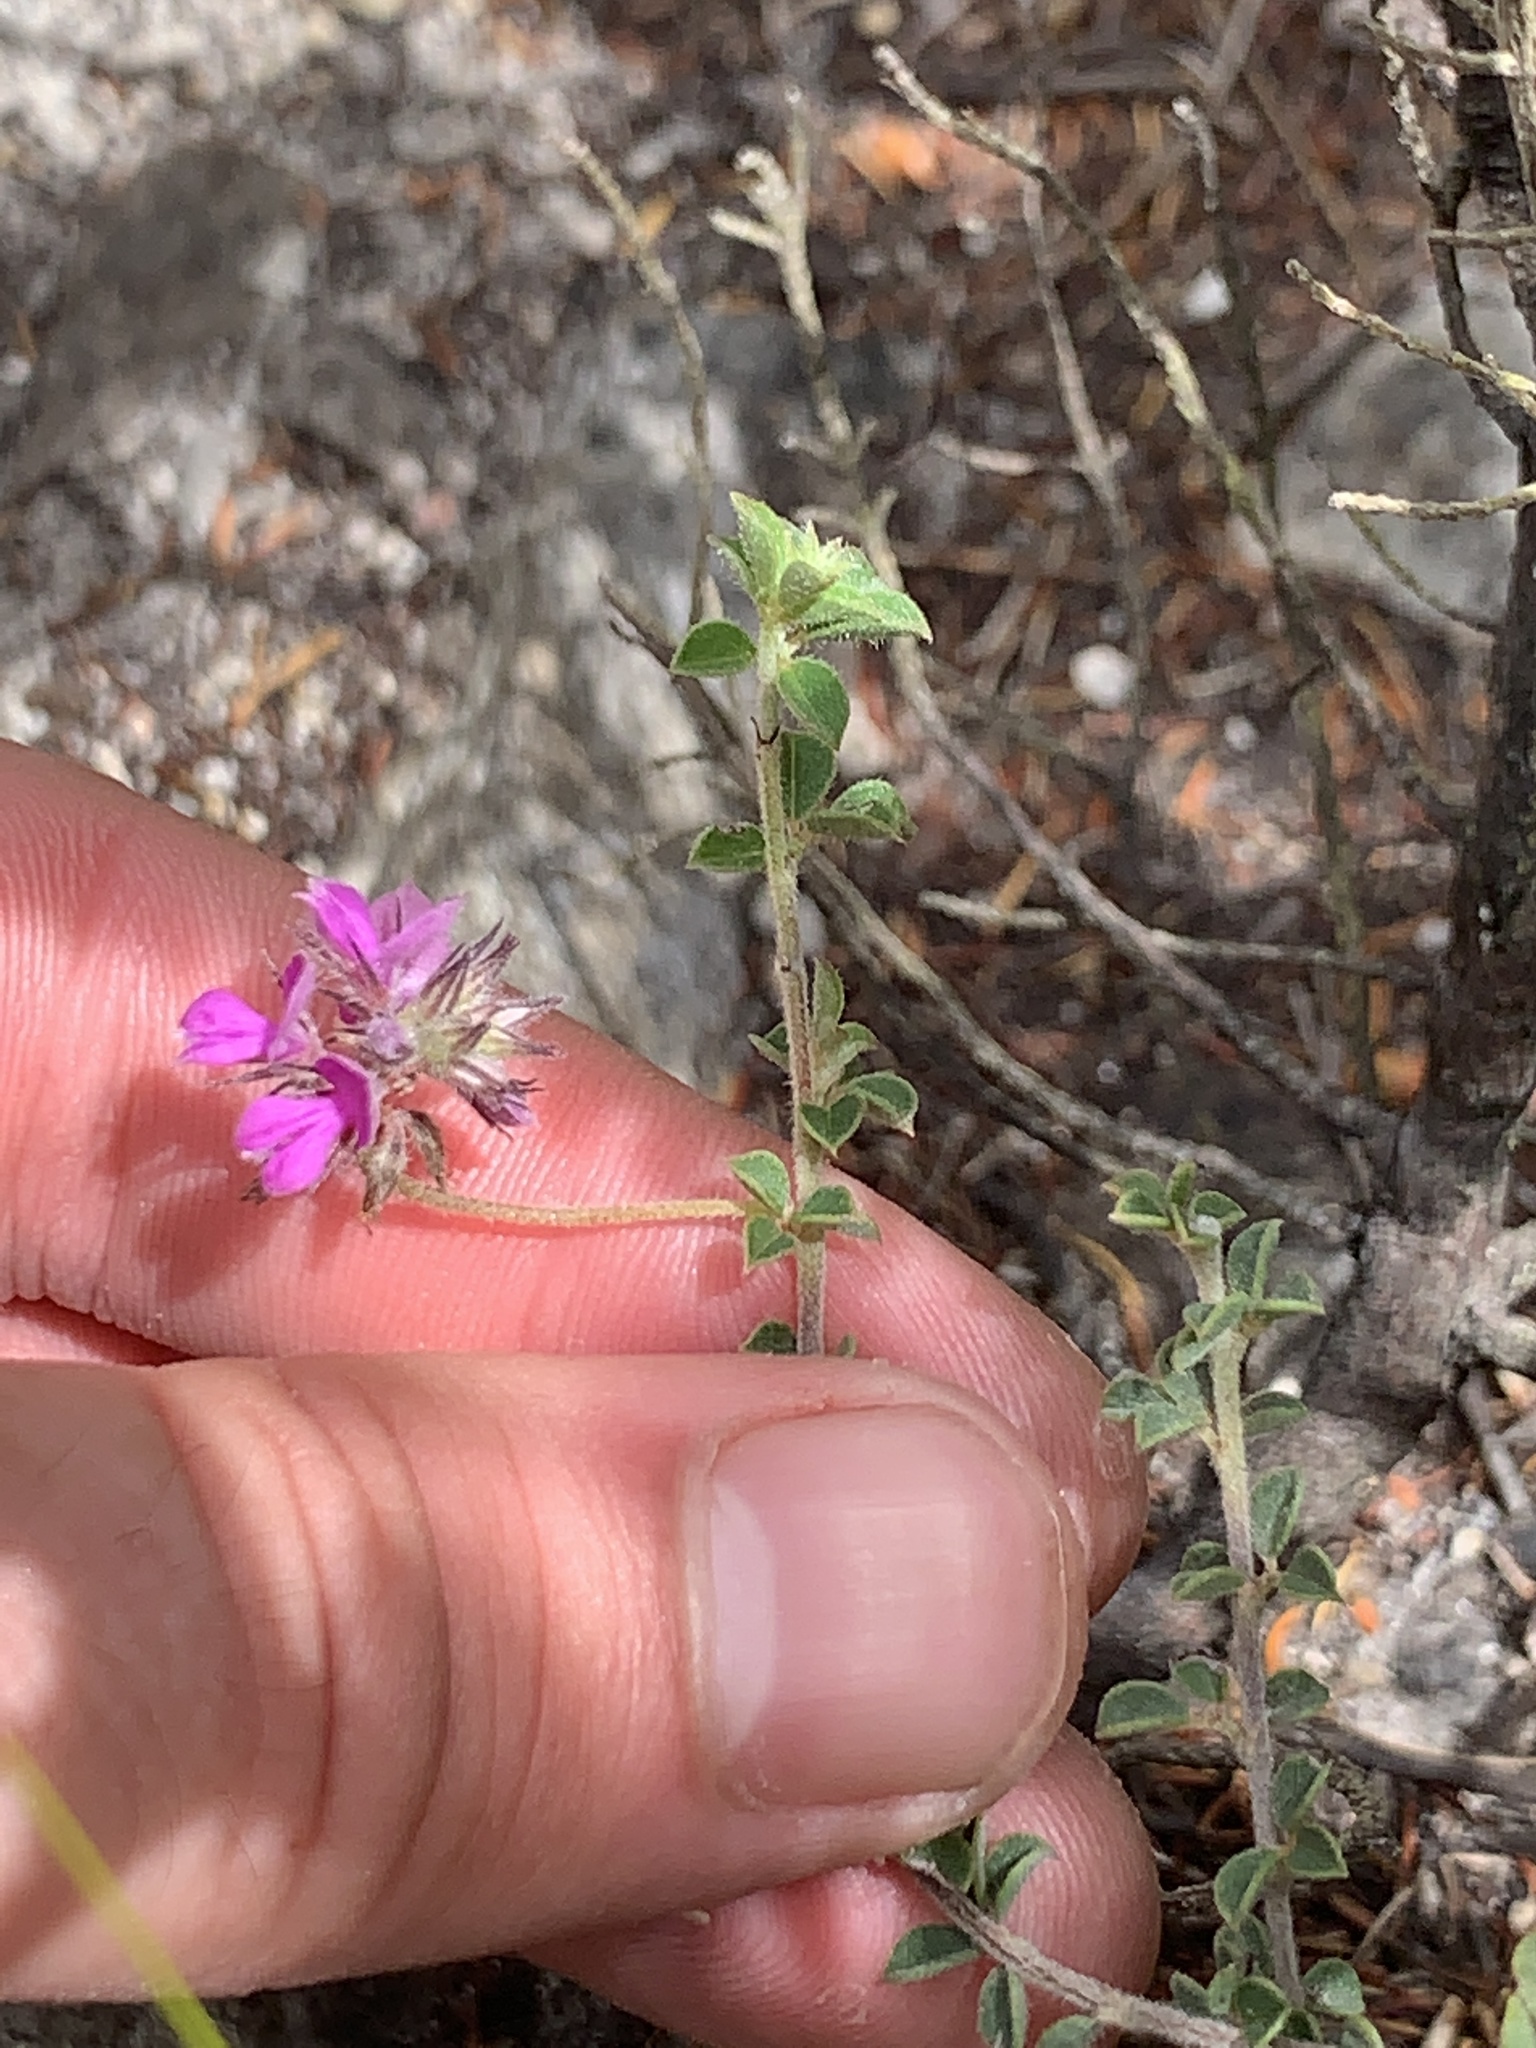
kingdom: Plantae
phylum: Tracheophyta
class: Magnoliopsida
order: Fabales
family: Fabaceae
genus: Indigofera
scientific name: Indigofera alopecuroides
